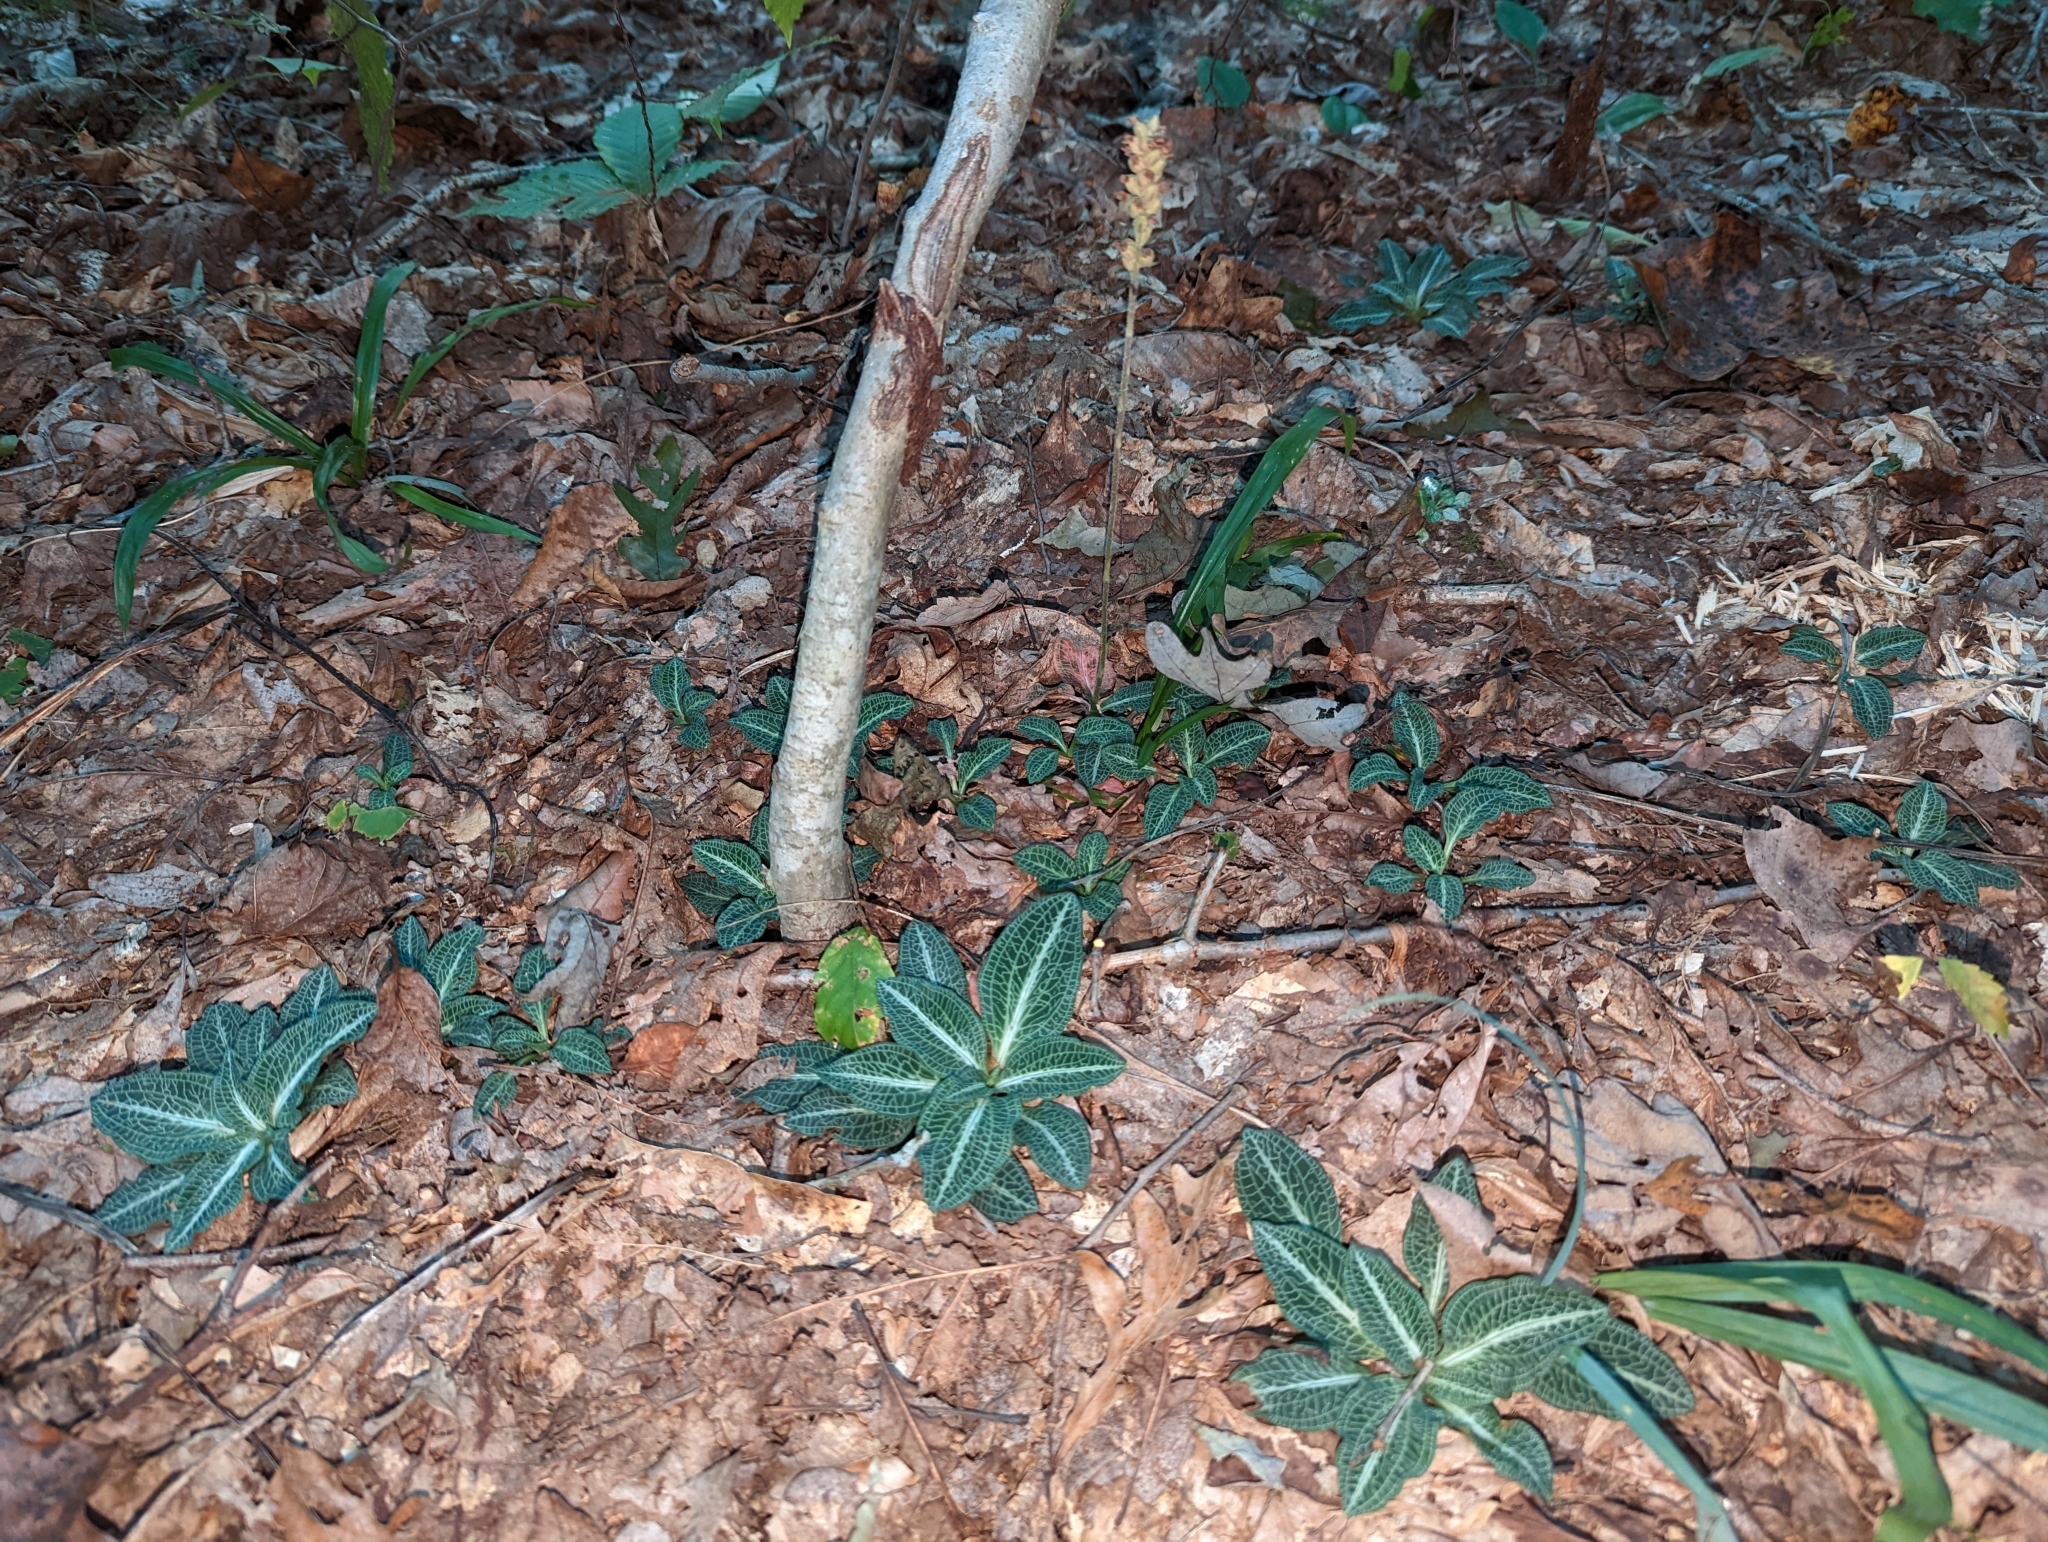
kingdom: Plantae
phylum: Tracheophyta
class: Liliopsida
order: Asparagales
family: Orchidaceae
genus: Goodyera
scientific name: Goodyera pubescens
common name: Downy rattlesnake-plantain
